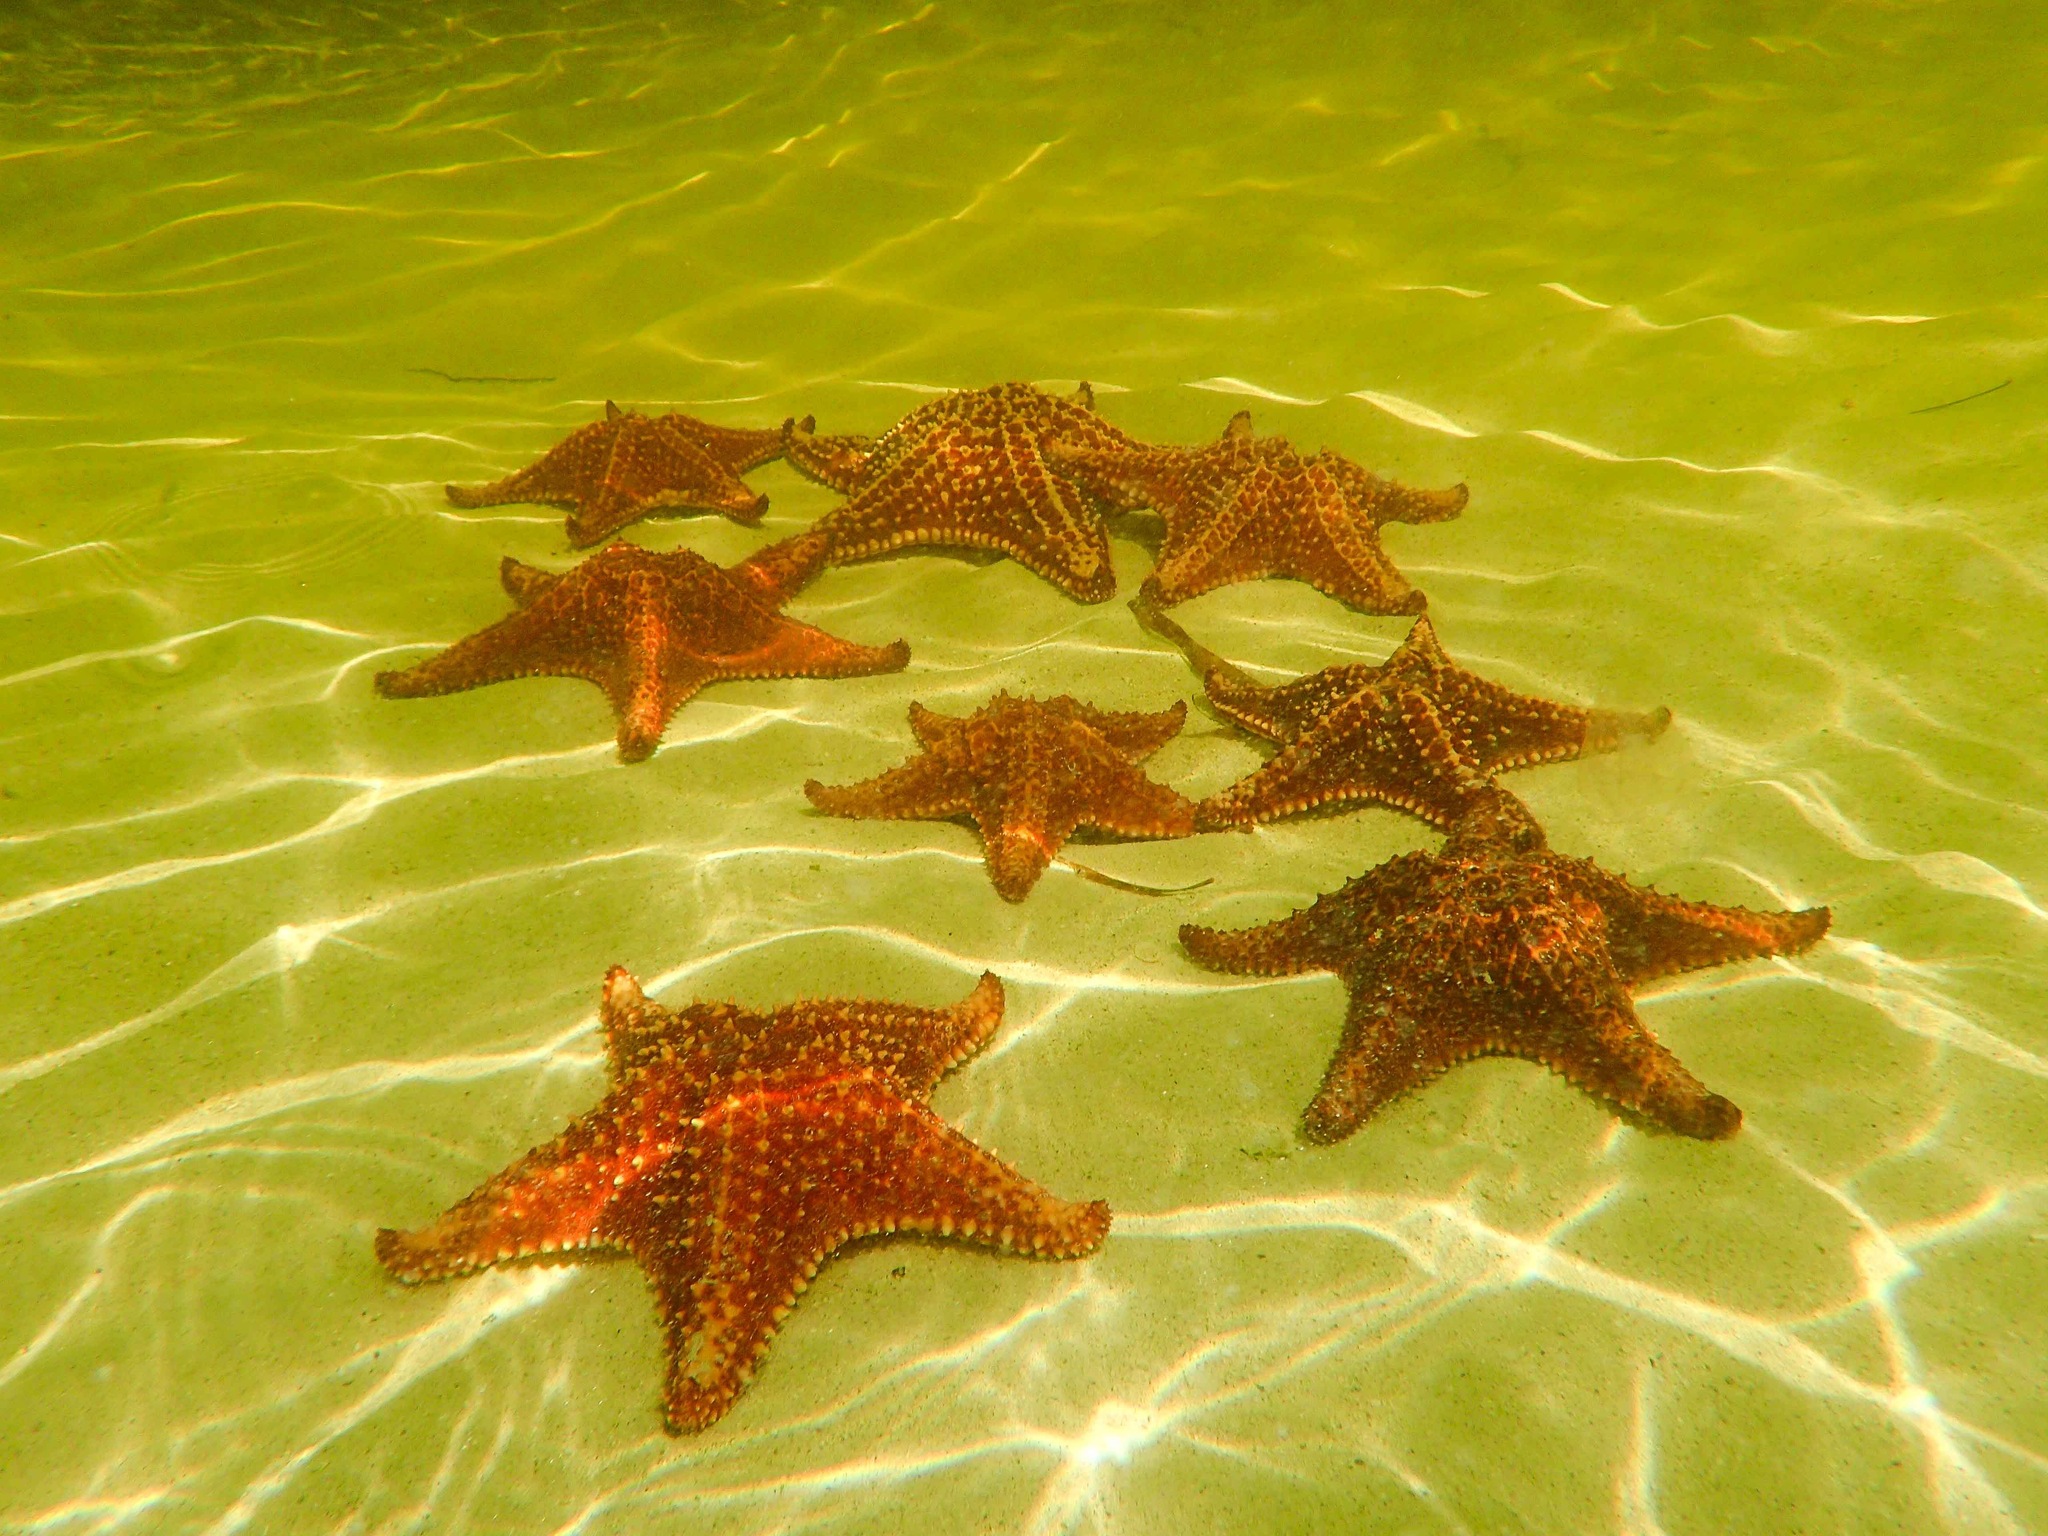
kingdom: Animalia
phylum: Echinodermata
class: Asteroidea
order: Valvatida
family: Oreasteridae
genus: Oreaster
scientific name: Oreaster reticulatus
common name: Cushion sea star
